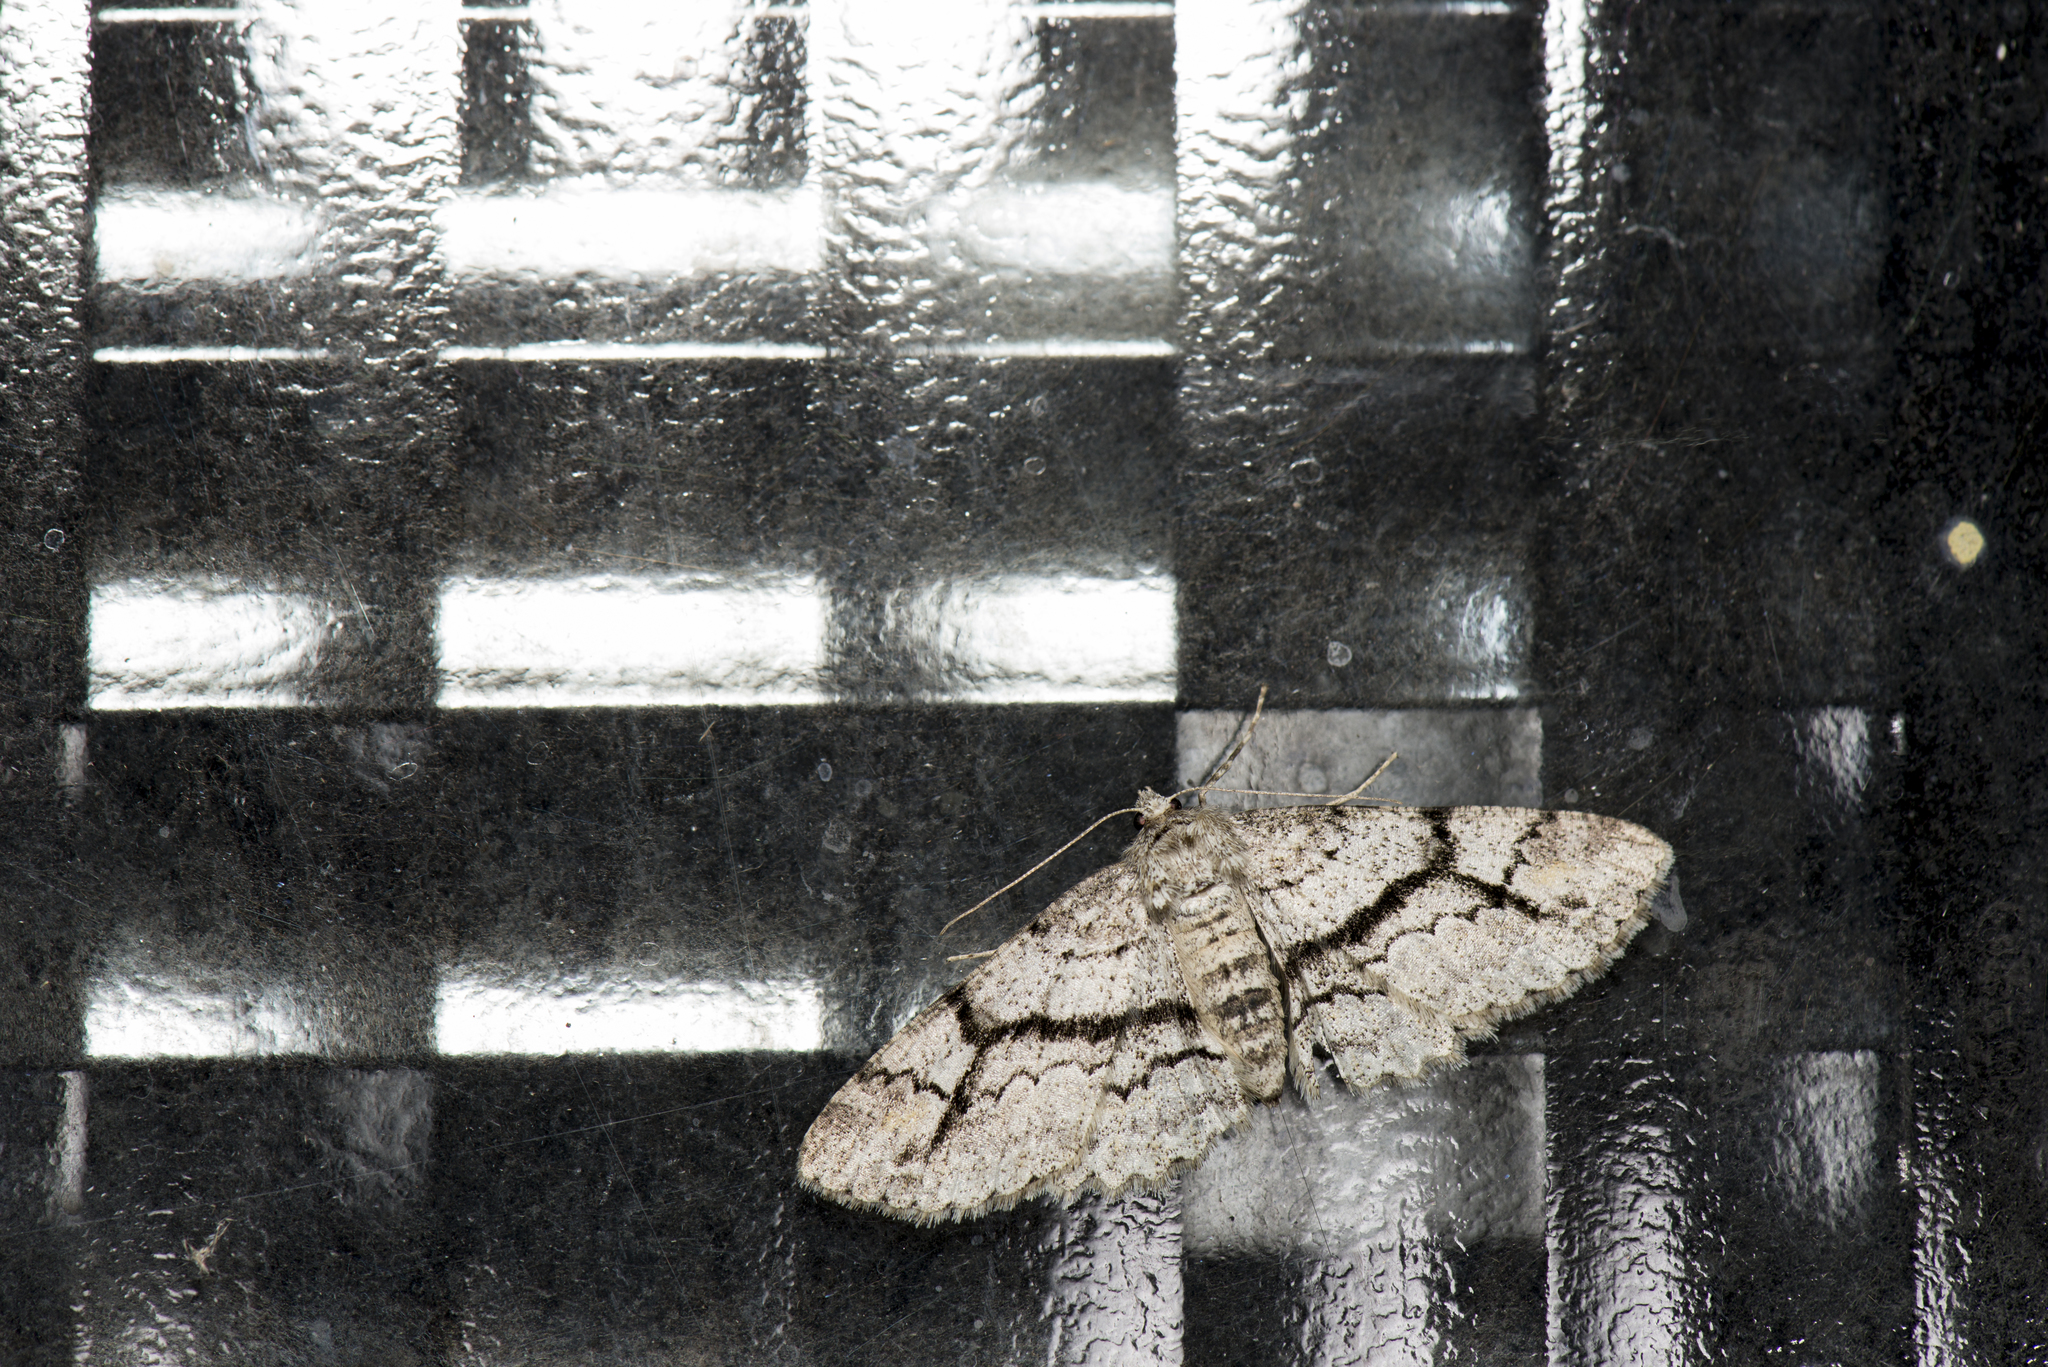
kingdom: Animalia
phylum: Arthropoda
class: Insecta
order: Lepidoptera
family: Geometridae
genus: Cleora
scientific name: Cleora leucophaea
